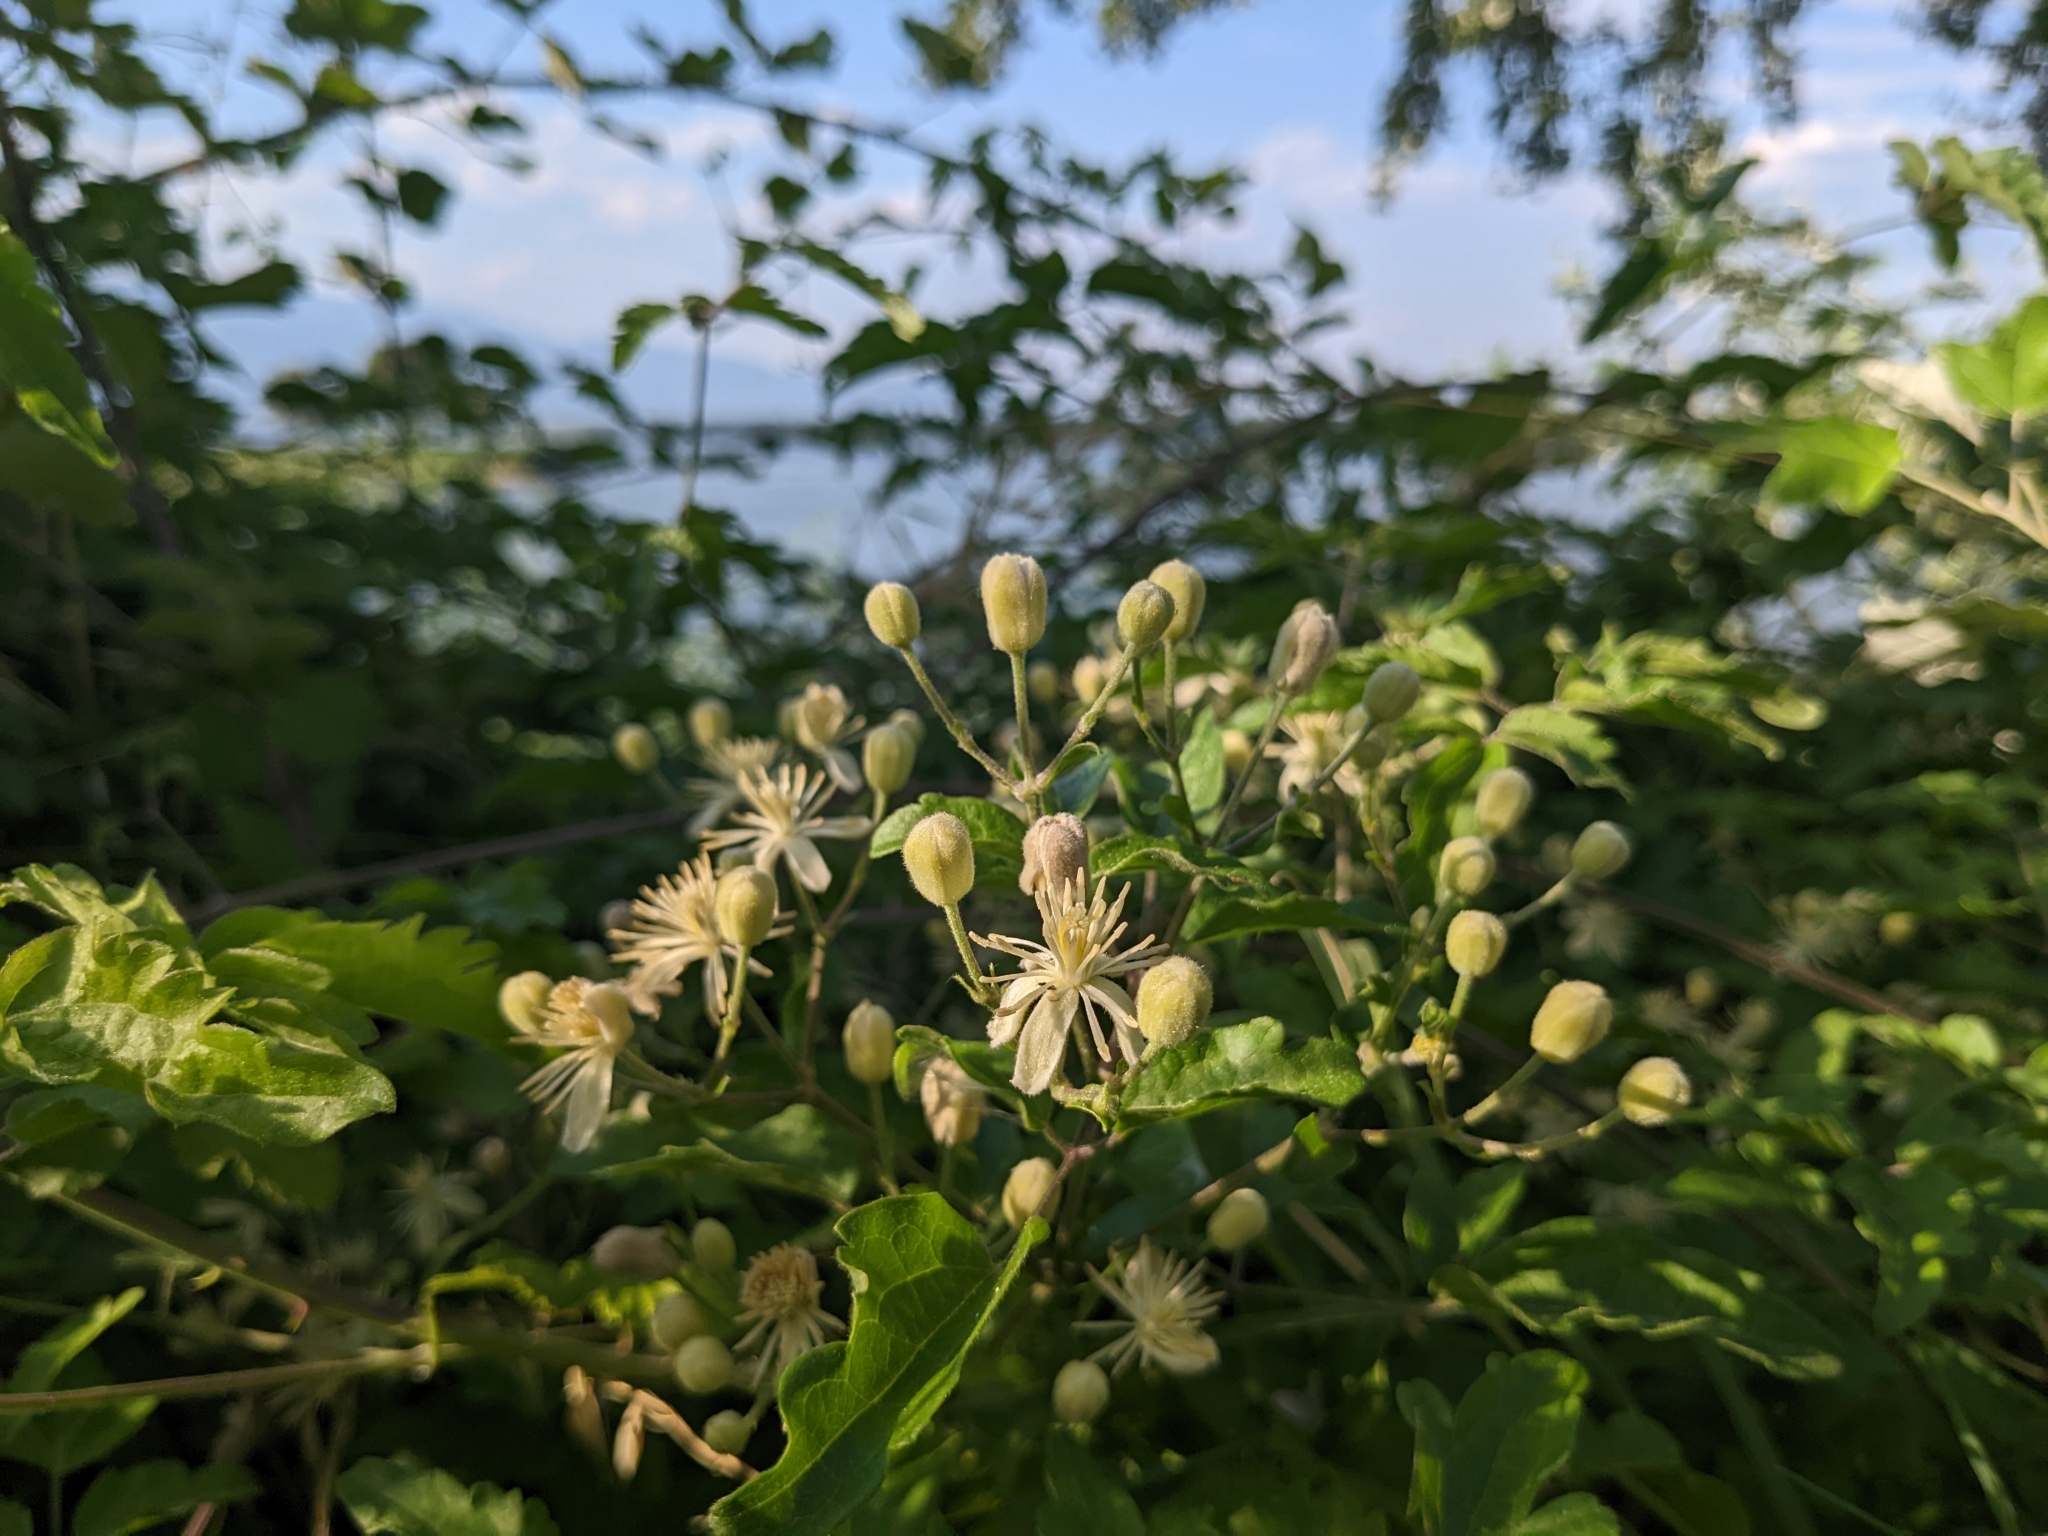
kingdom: Plantae
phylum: Tracheophyta
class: Magnoliopsida
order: Ranunculales
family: Ranunculaceae
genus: Clematis
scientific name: Clematis vitalba
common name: Evergreen clematis
